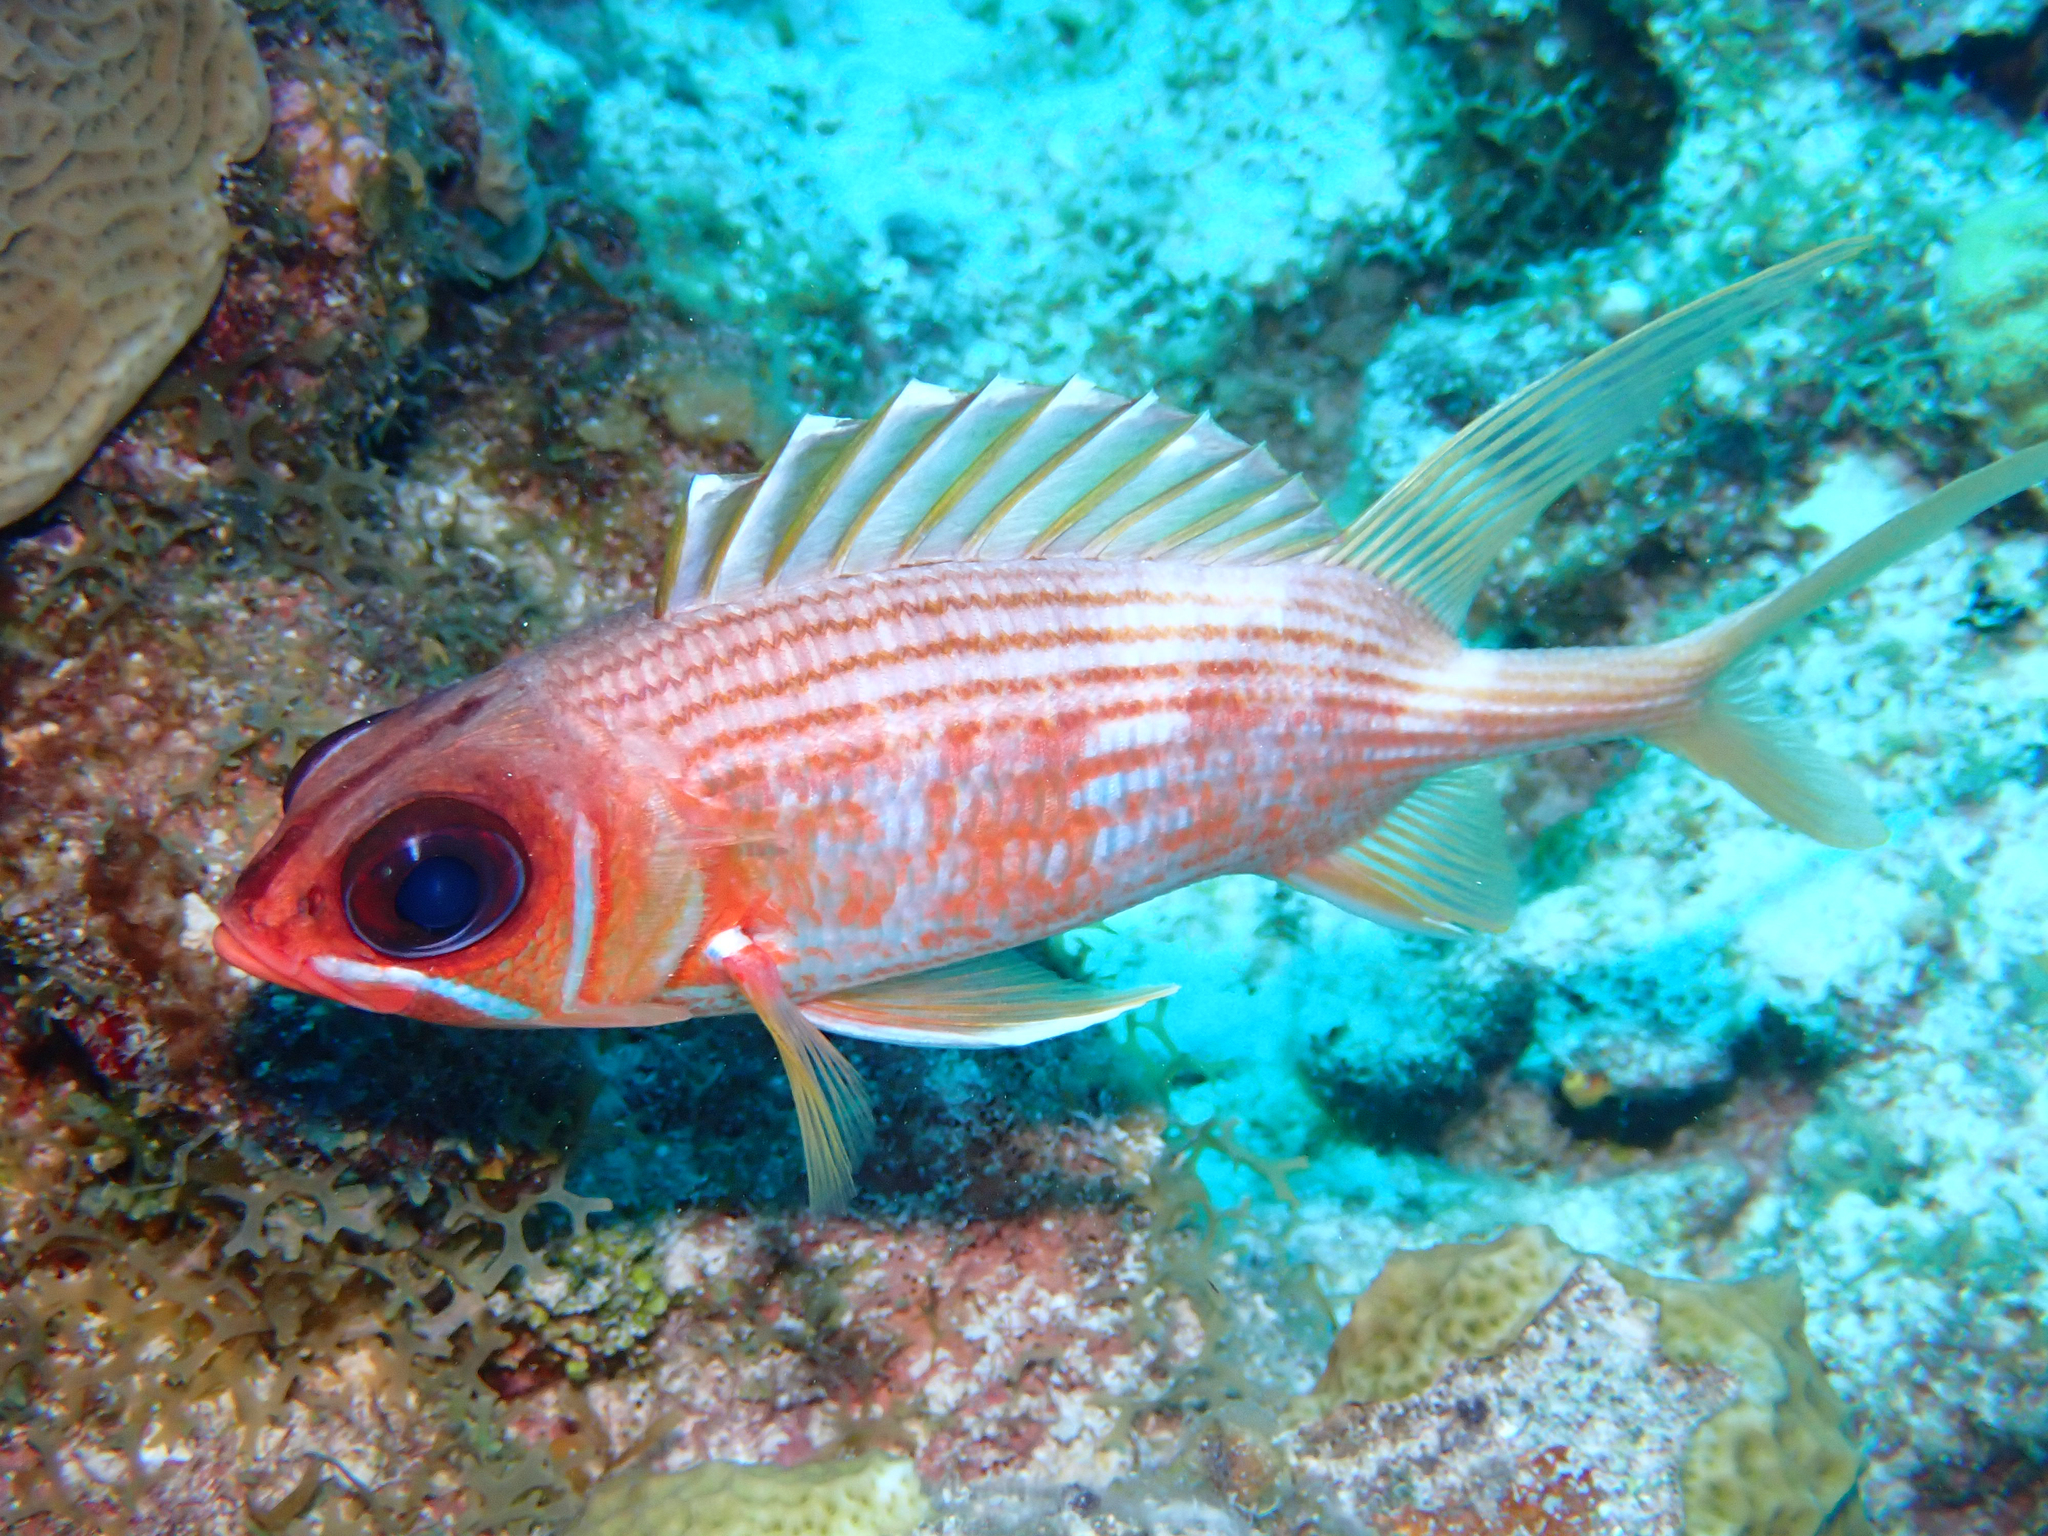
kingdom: Animalia
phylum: Chordata
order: Beryciformes
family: Holocentridae
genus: Holocentrus
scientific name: Holocentrus rufus
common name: Longspine squirrelfish
